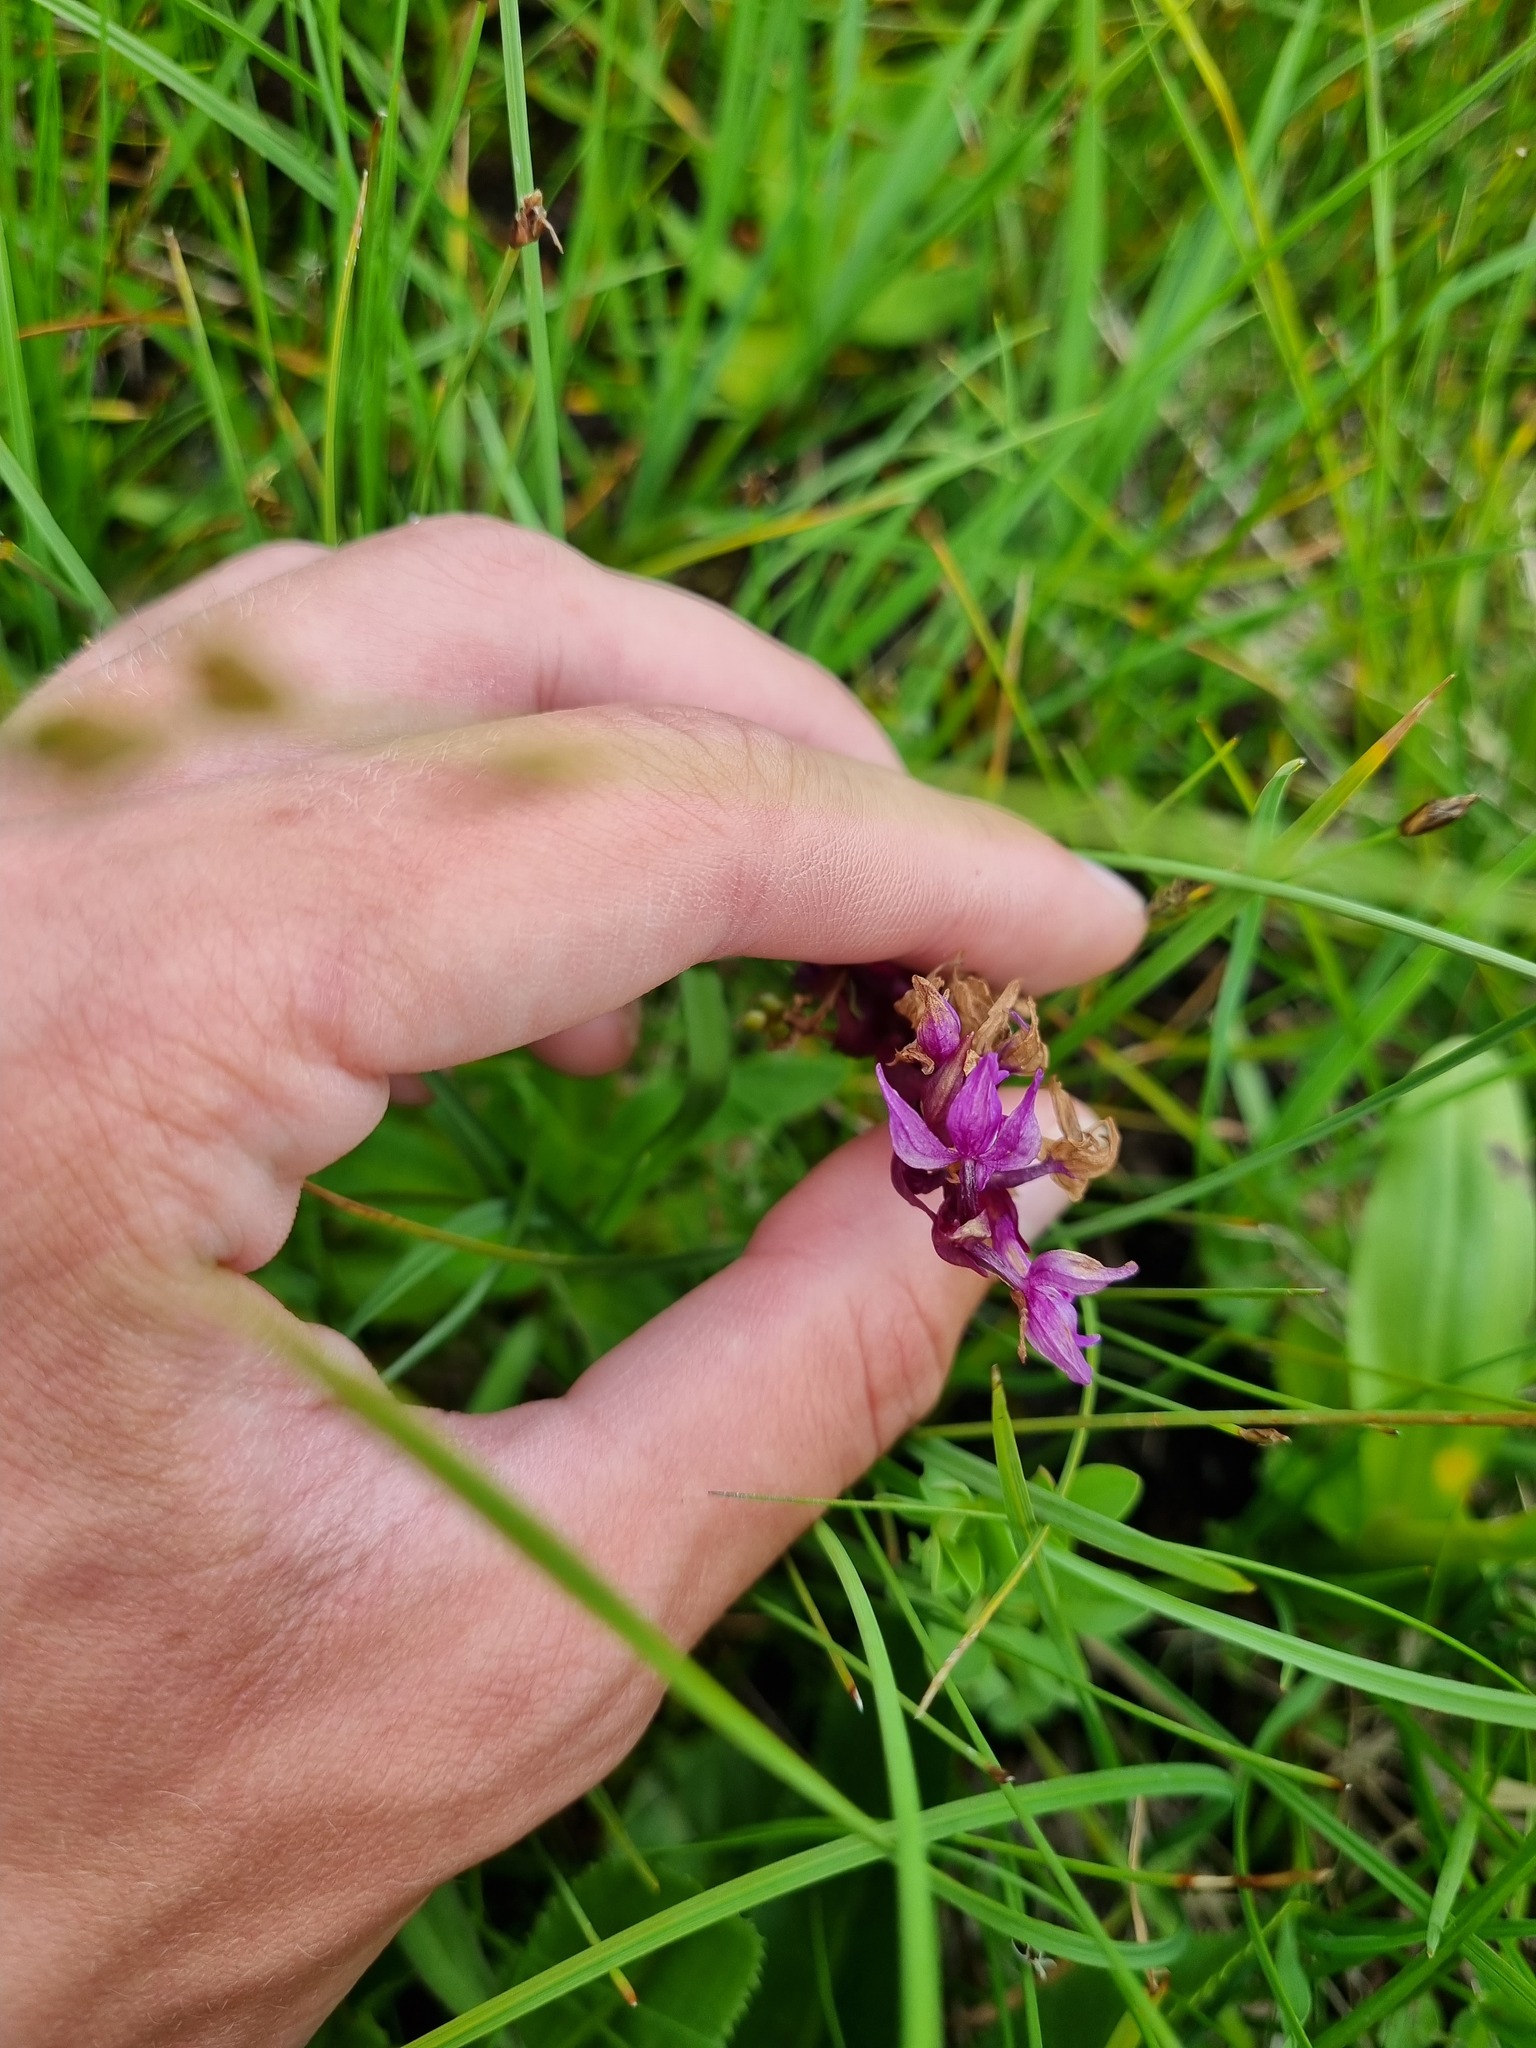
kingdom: Plantae
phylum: Tracheophyta
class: Liliopsida
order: Asparagales
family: Orchidaceae
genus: Dactylorhiza
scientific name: Dactylorhiza euxina
